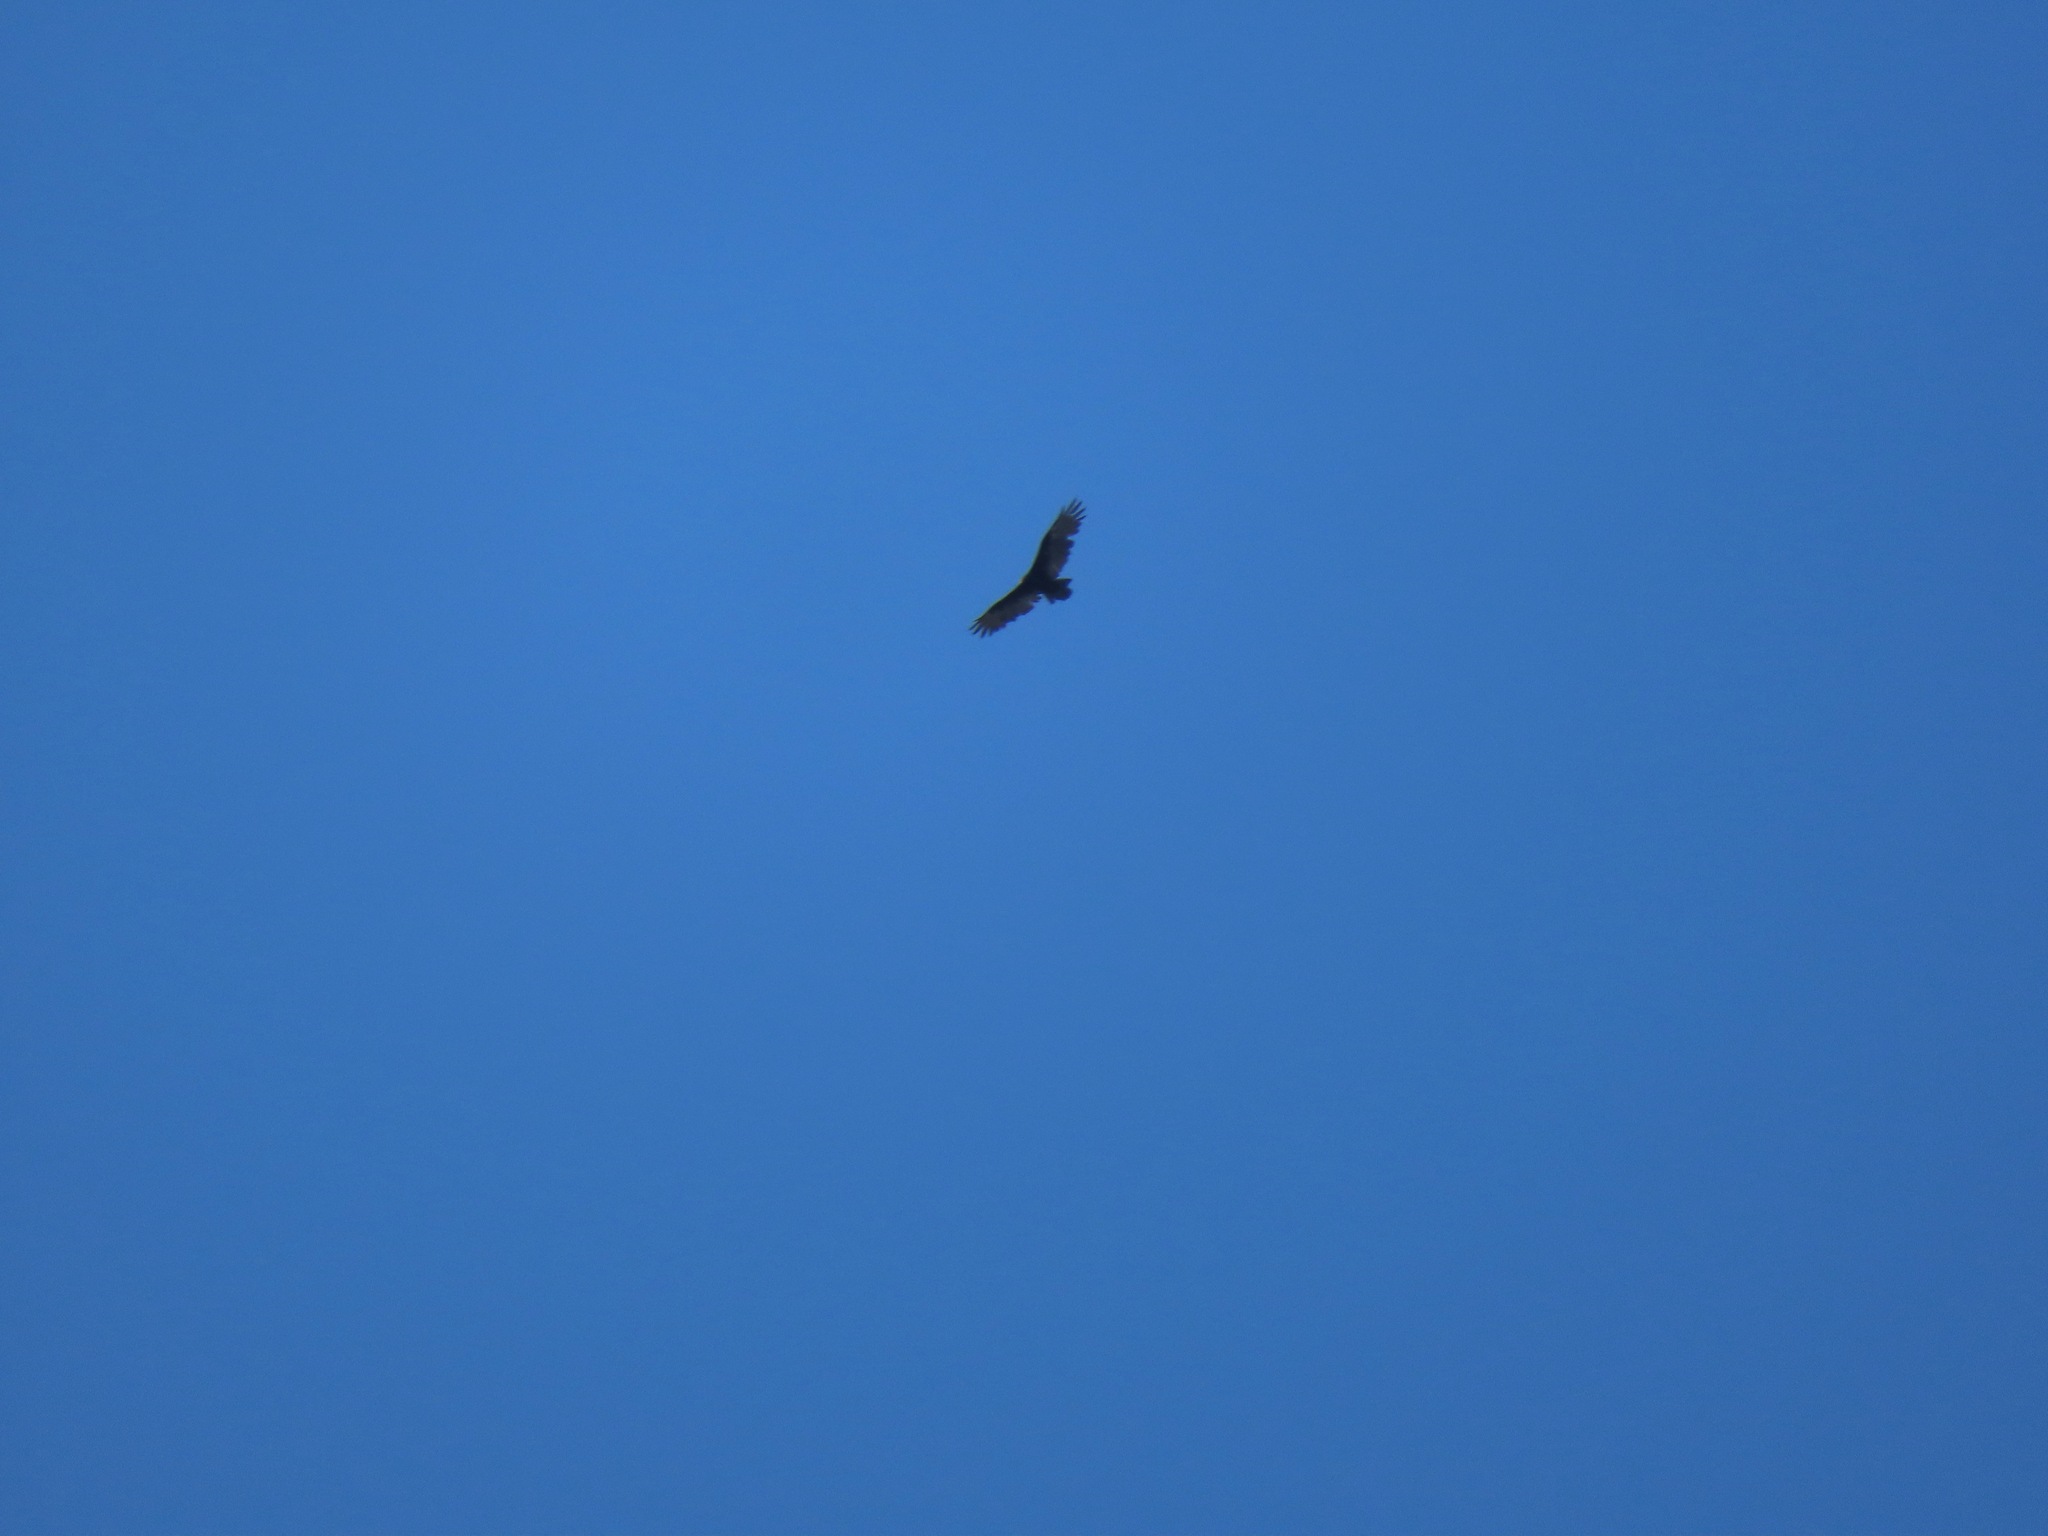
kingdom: Animalia
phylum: Chordata
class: Aves
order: Accipitriformes
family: Cathartidae
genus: Cathartes
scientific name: Cathartes aura
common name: Turkey vulture
